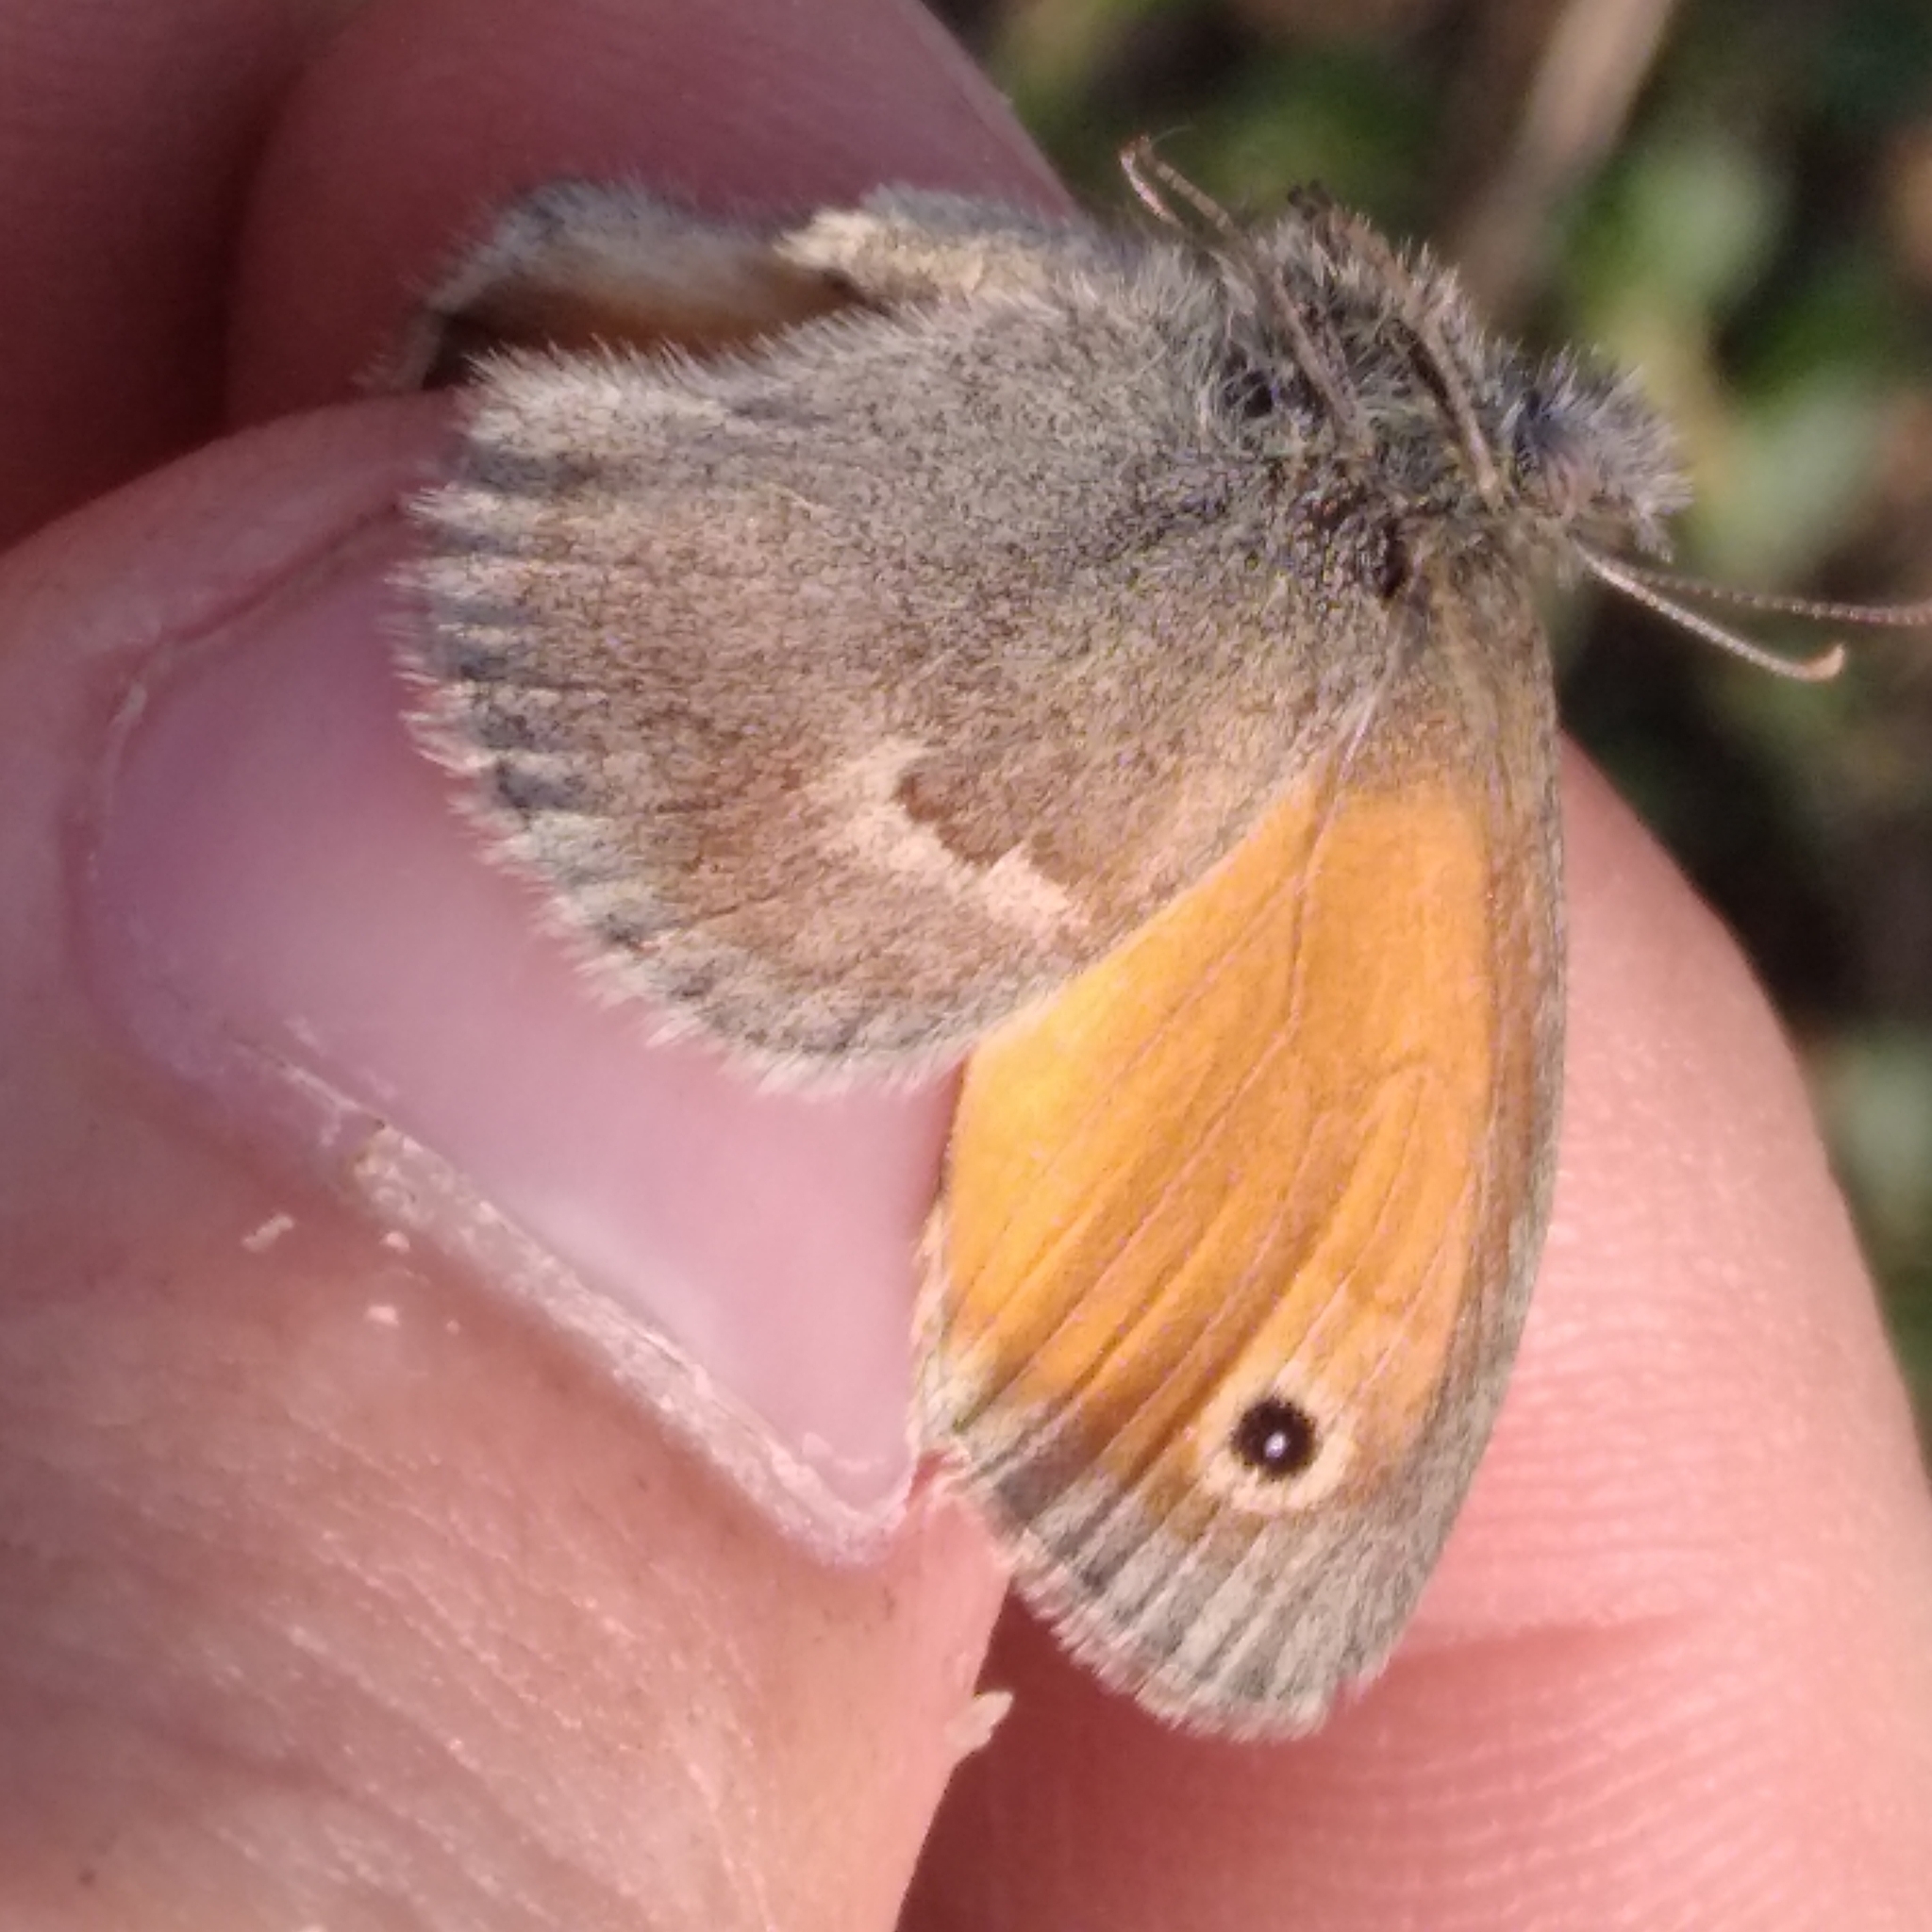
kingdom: Animalia
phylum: Arthropoda
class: Insecta
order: Lepidoptera
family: Nymphalidae
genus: Coenonympha
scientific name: Coenonympha pamphilus
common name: Small heath
